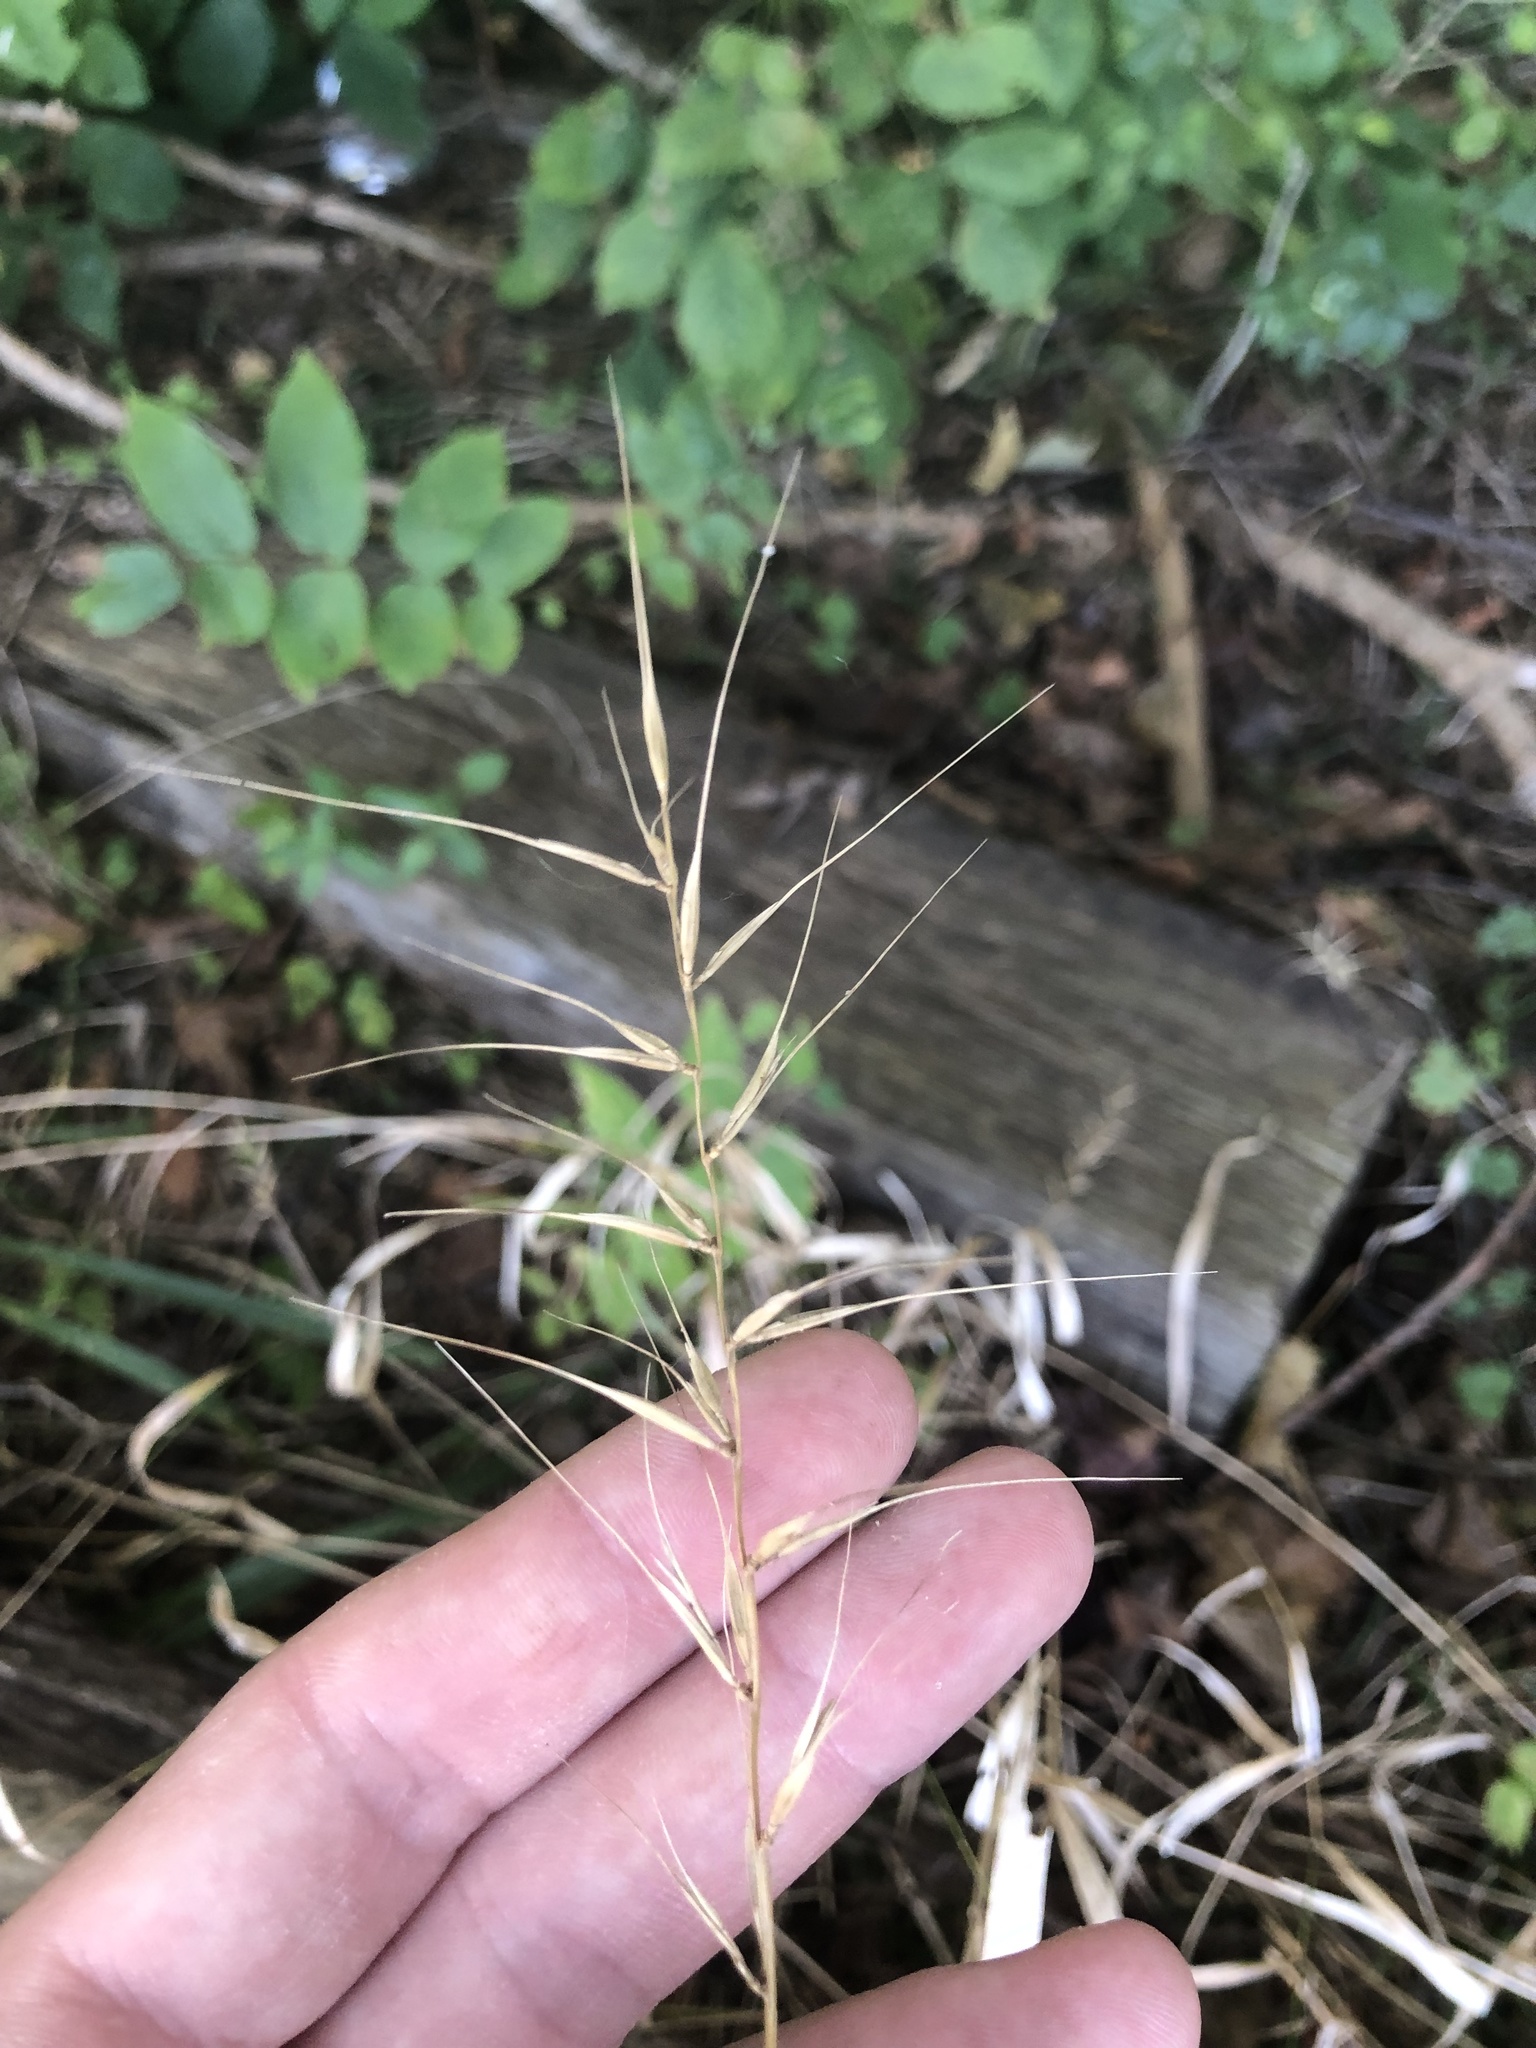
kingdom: Plantae
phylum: Tracheophyta
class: Liliopsida
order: Poales
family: Poaceae
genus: Elymus
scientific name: Elymus hystrix
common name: Bottlebrush grass
